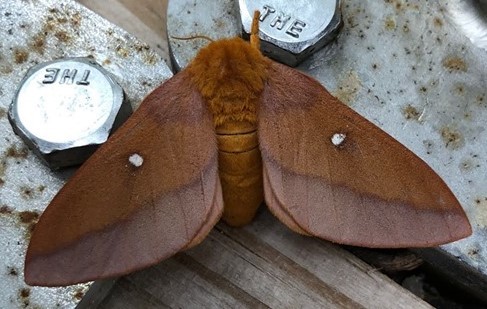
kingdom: Animalia
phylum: Arthropoda
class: Insecta
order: Lepidoptera
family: Saturniidae
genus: Anisota
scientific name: Anisota virginiensis
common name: Pink striped oakworm moth
